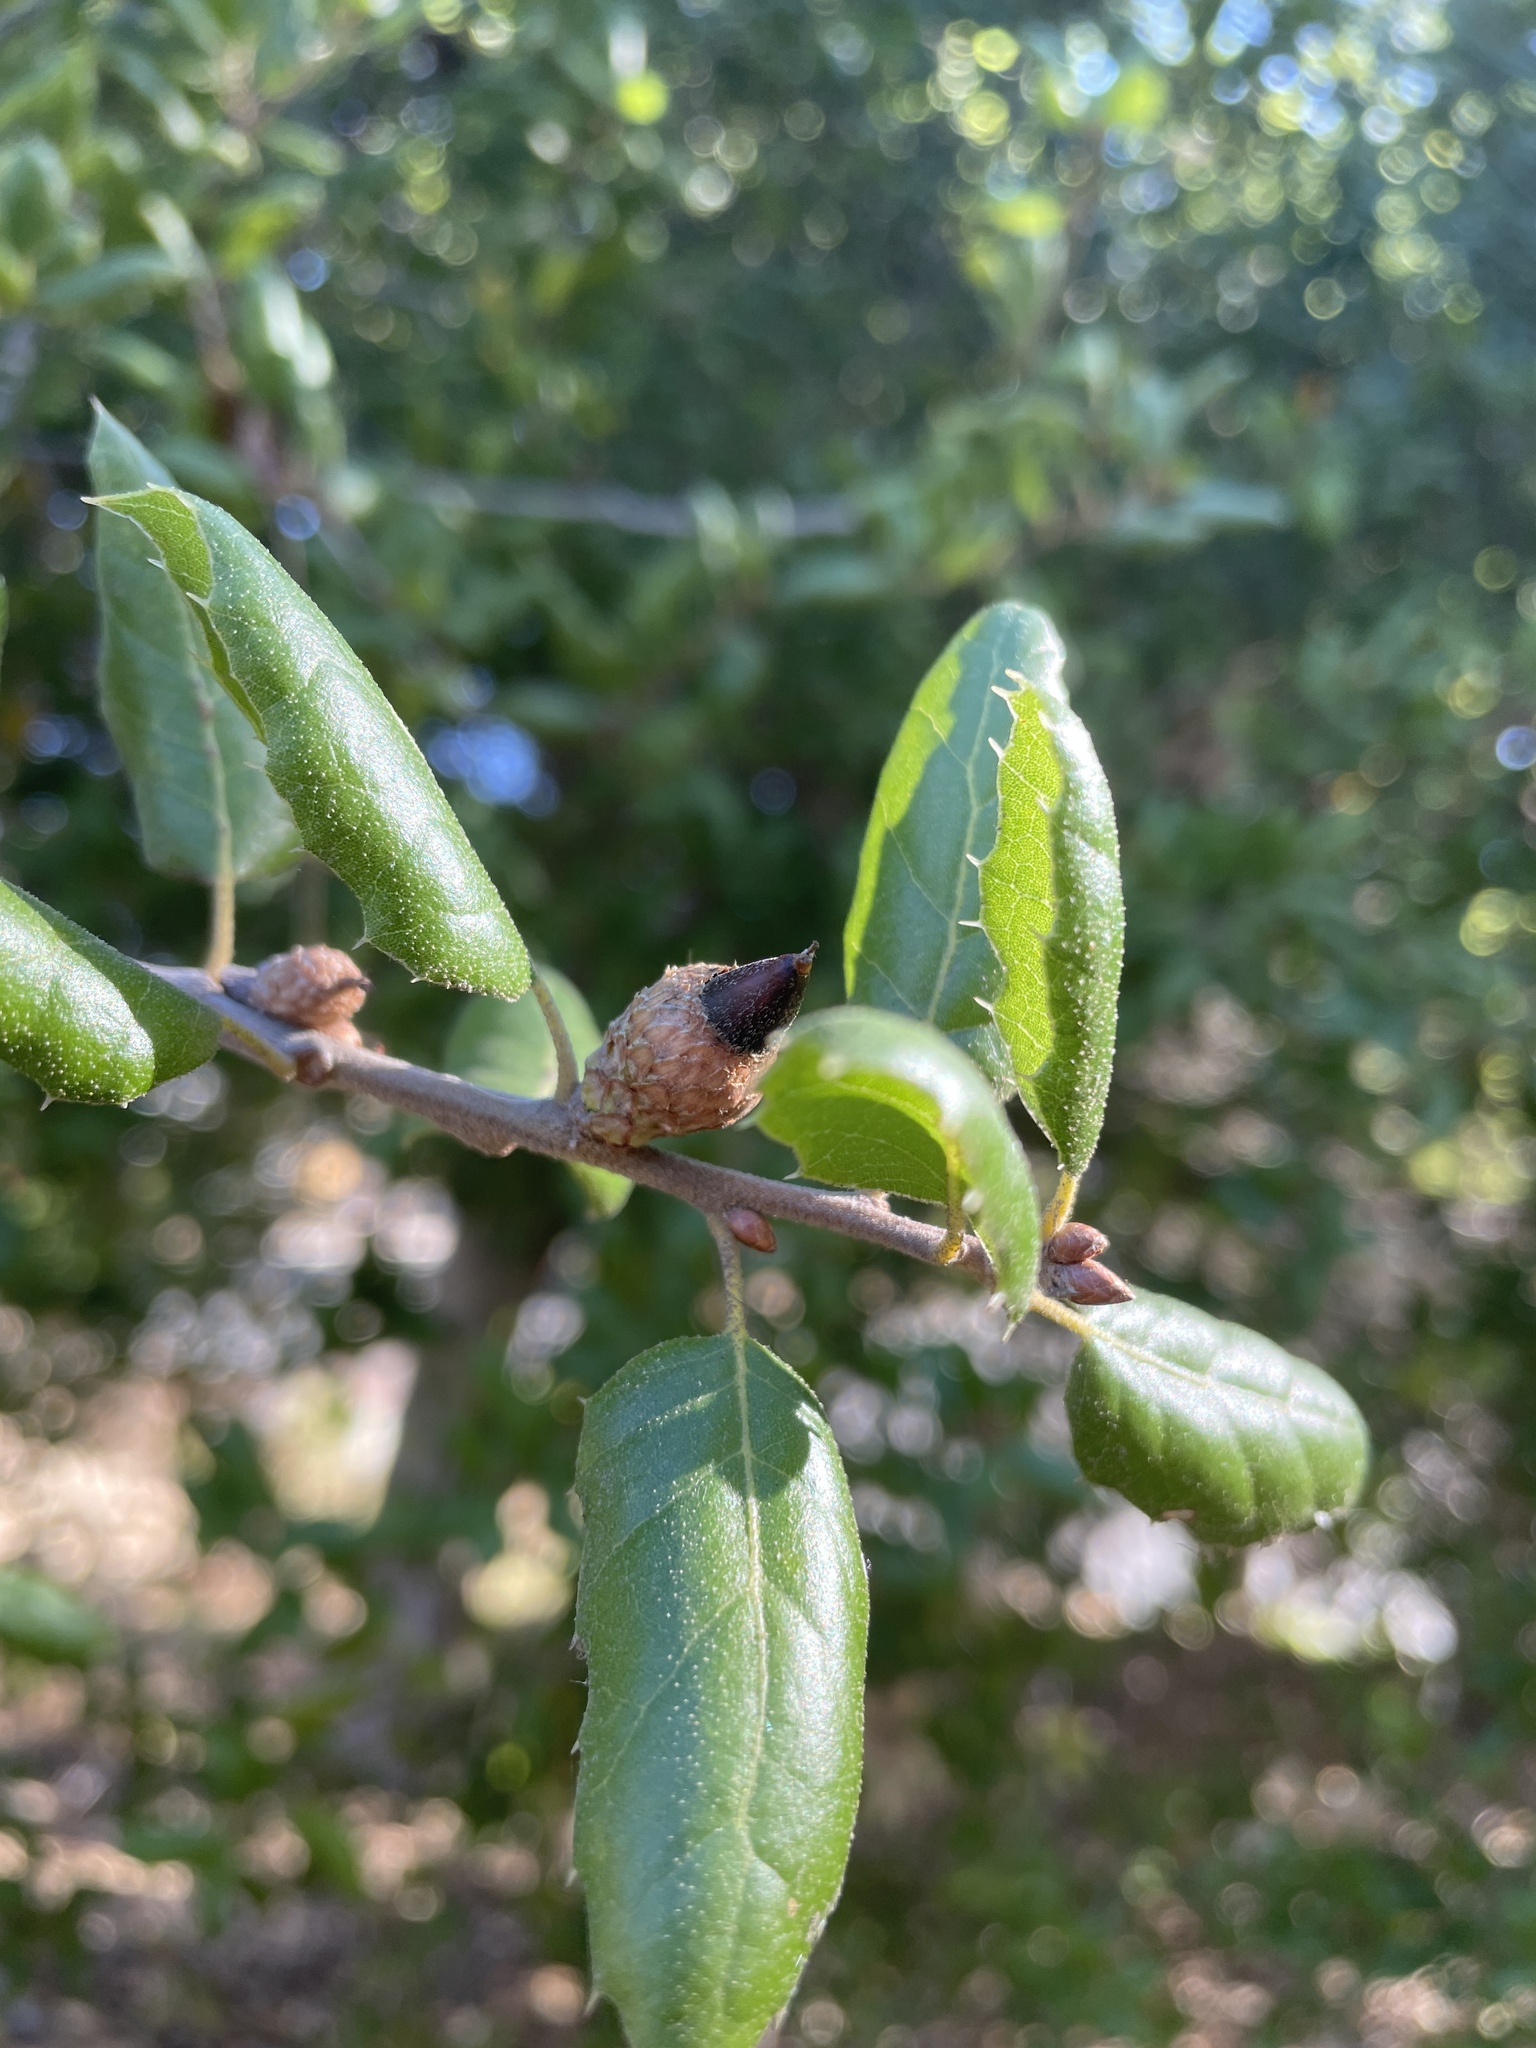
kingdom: Plantae
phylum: Tracheophyta
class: Magnoliopsida
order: Fagales
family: Fagaceae
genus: Quercus
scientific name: Quercus agrifolia
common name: California live oak
